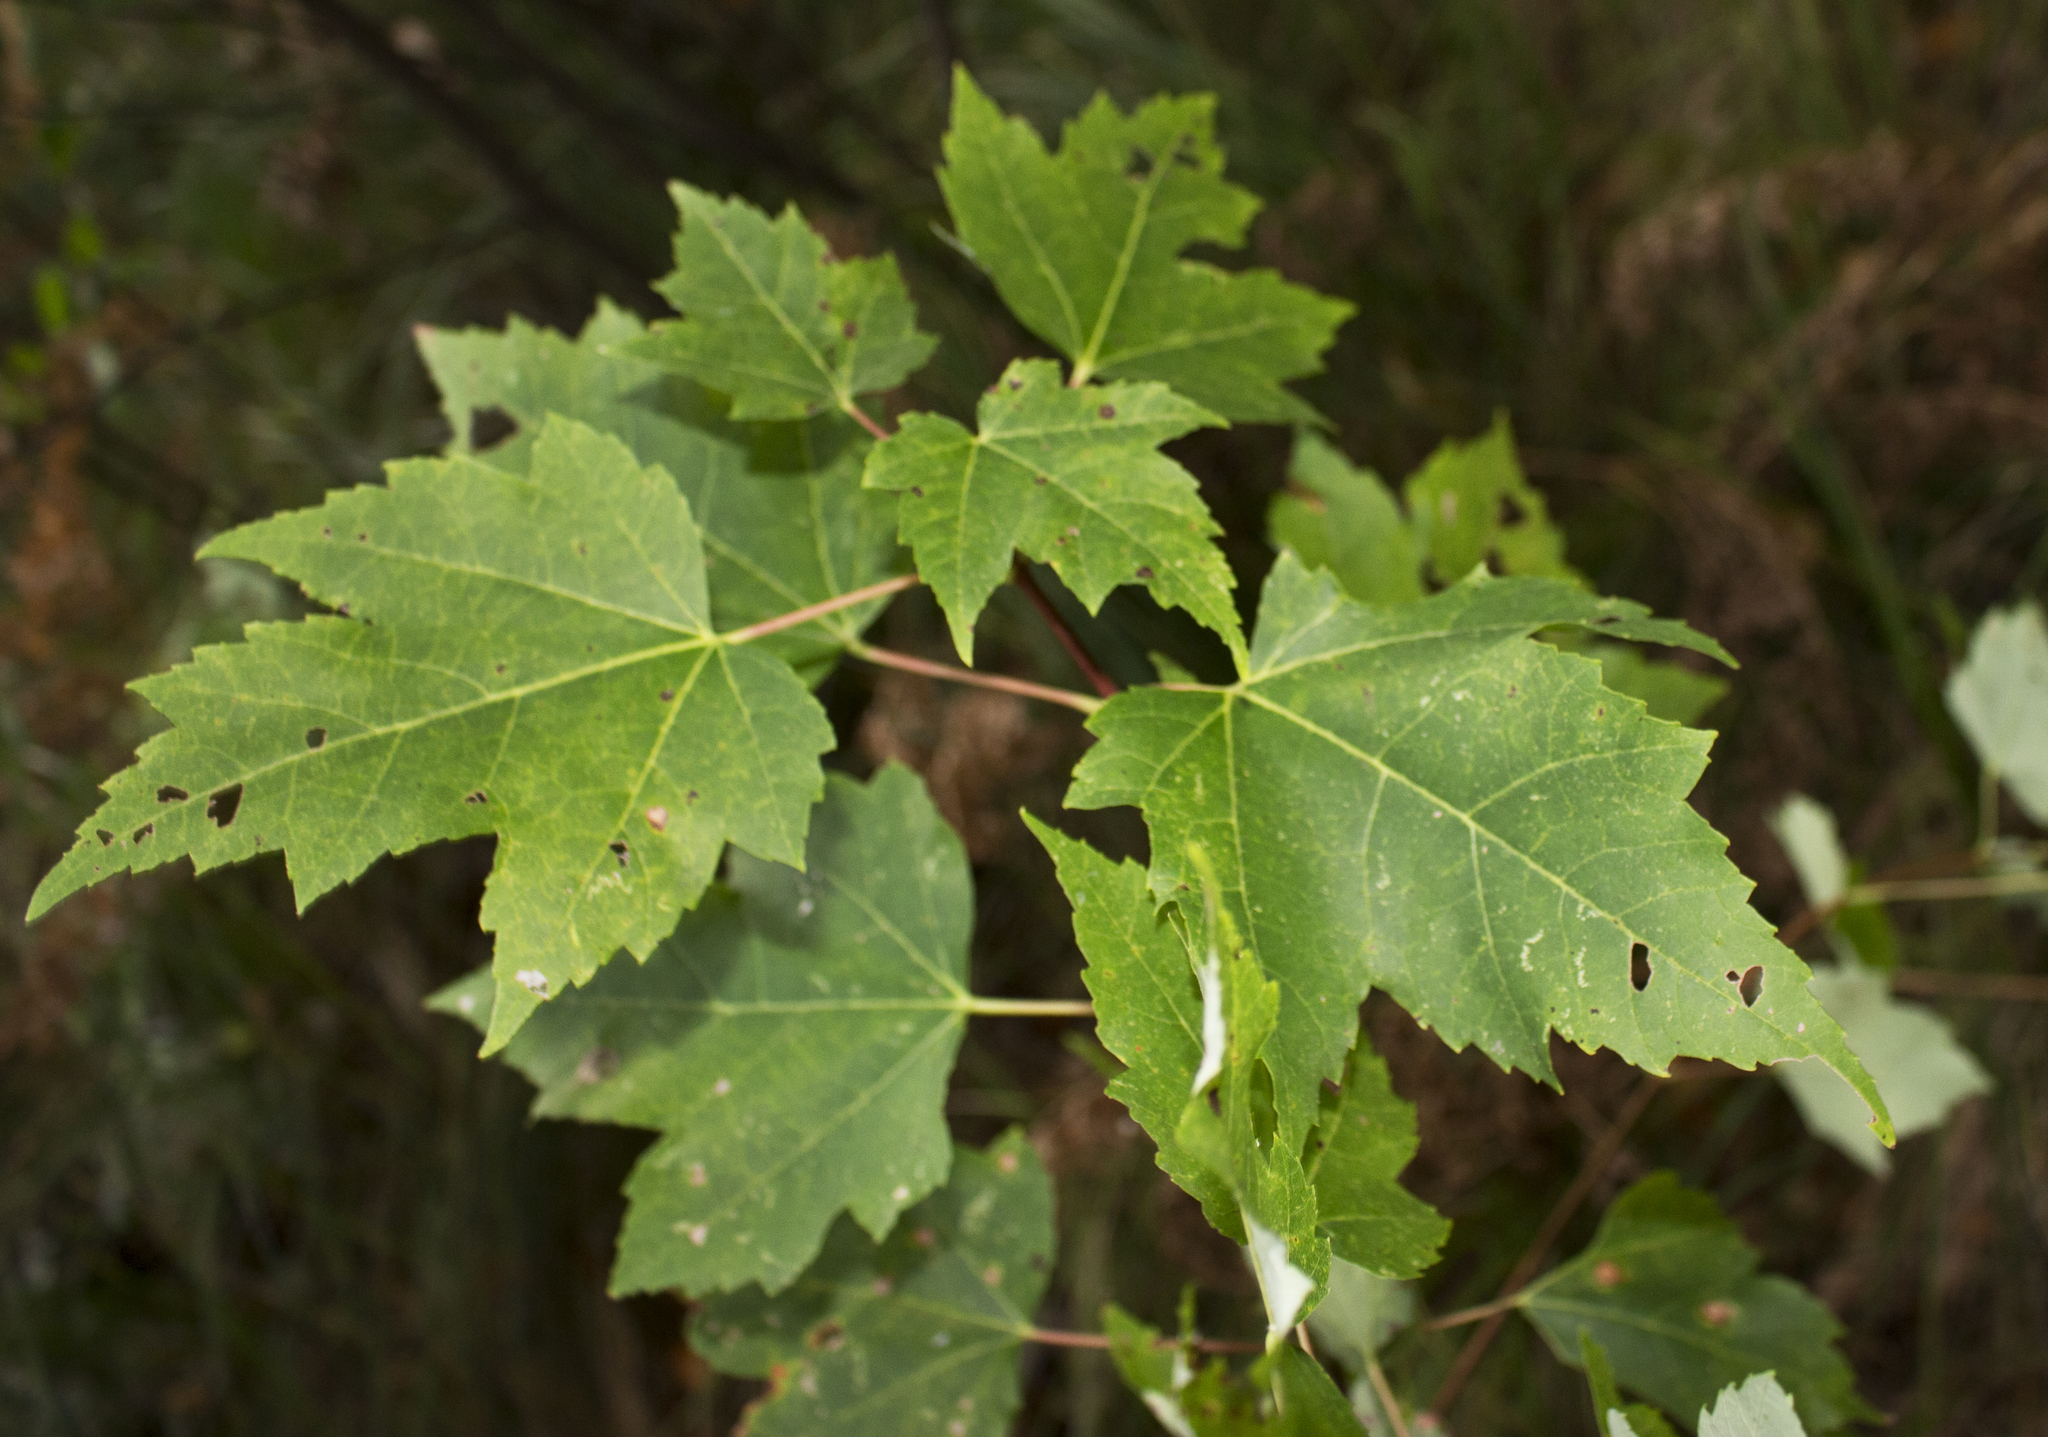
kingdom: Plantae
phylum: Tracheophyta
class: Magnoliopsida
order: Sapindales
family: Sapindaceae
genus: Acer
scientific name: Acer rubrum
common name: Red maple
